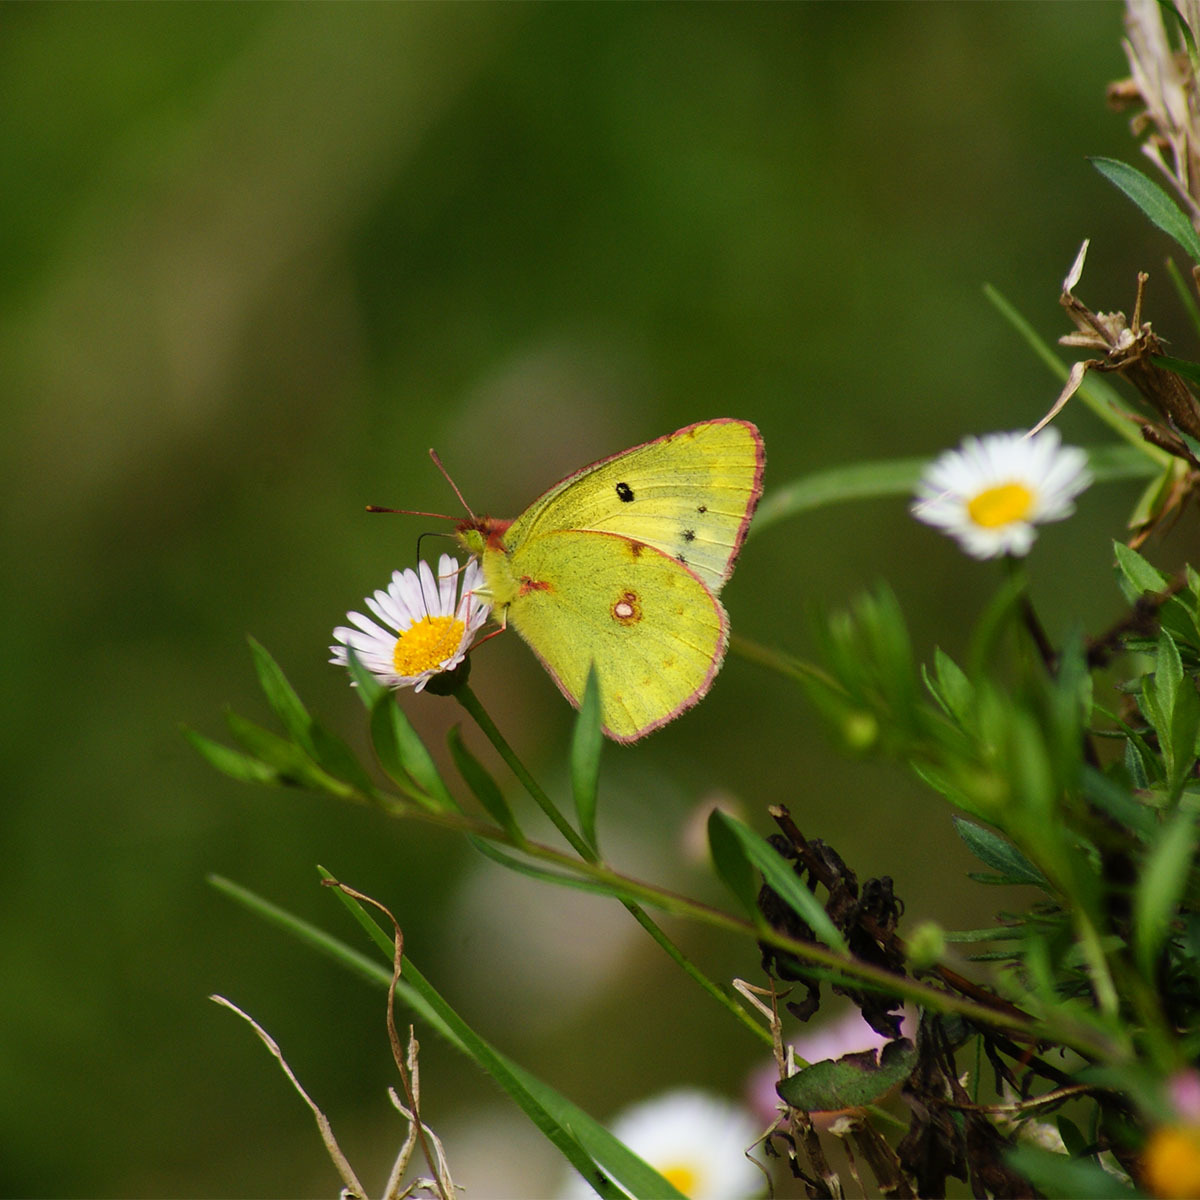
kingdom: Animalia
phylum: Arthropoda
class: Insecta
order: Lepidoptera
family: Pieridae
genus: Colias
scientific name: Colias nilagiriensis
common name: Nilgiri clouded yellow
